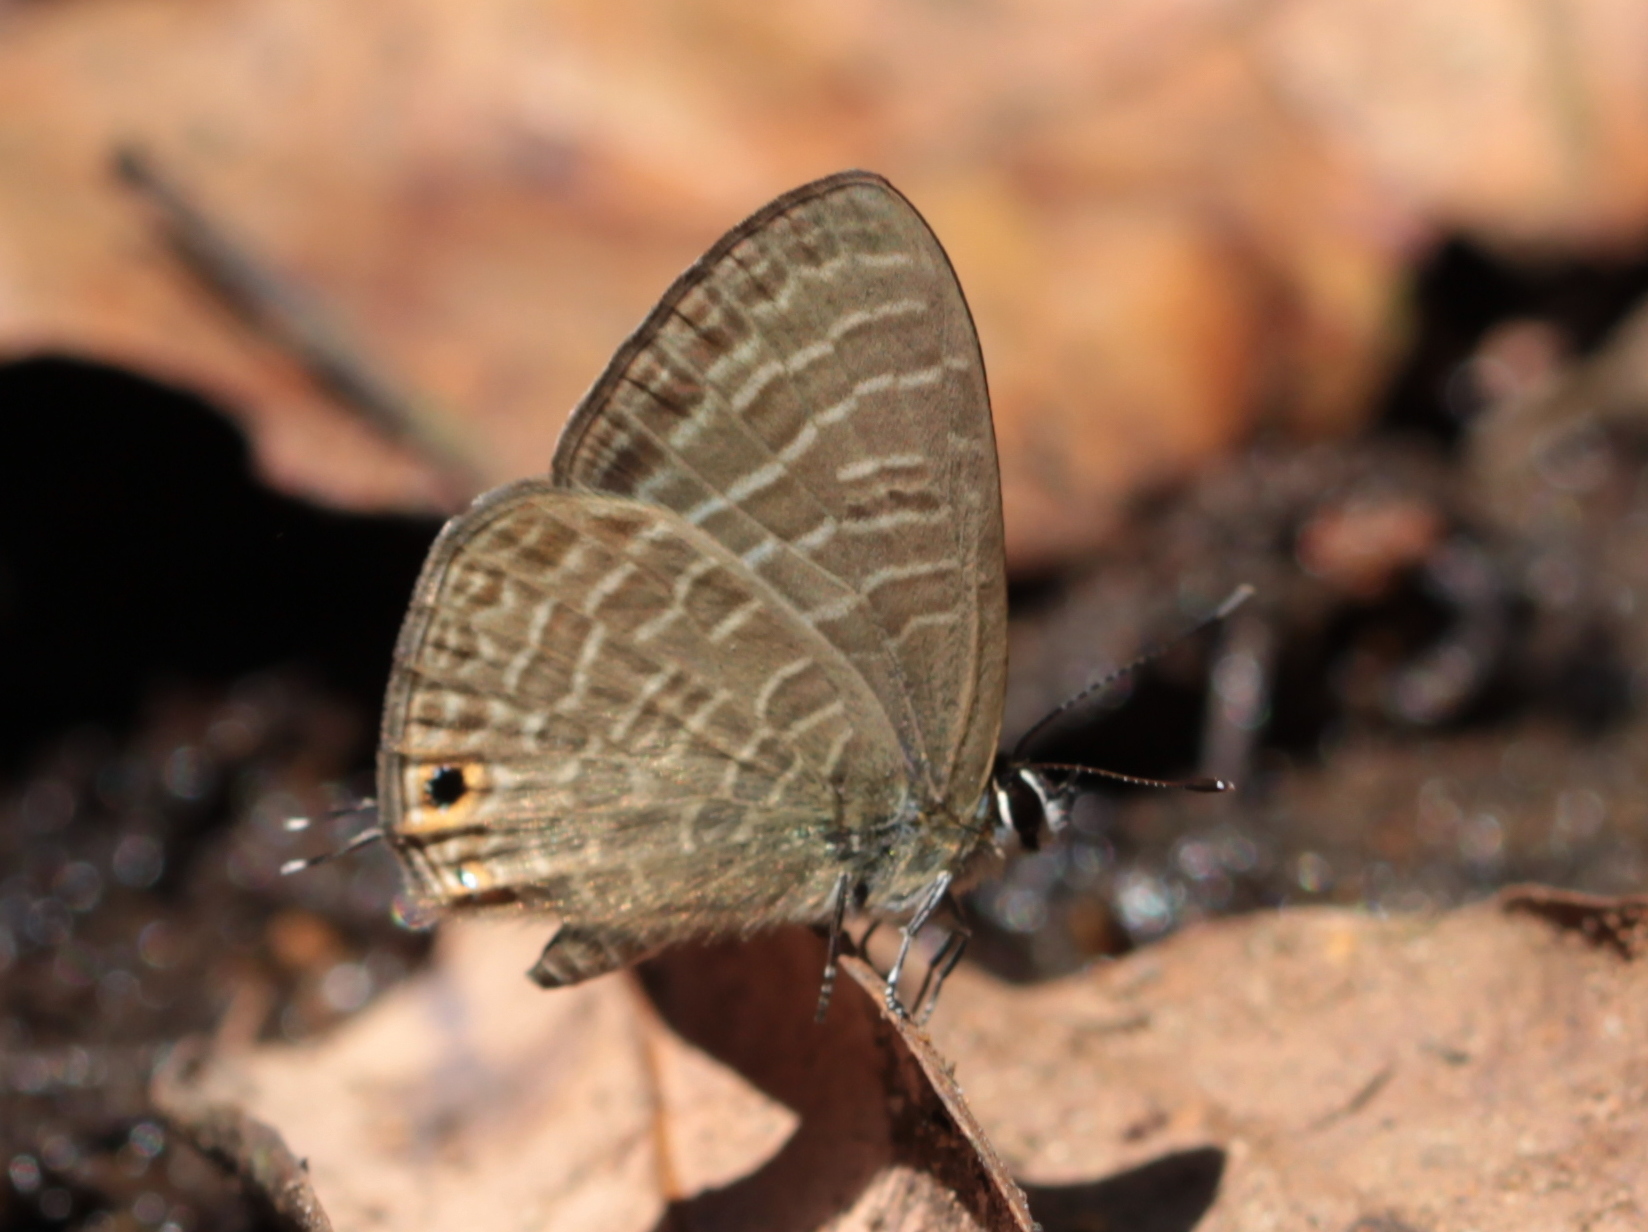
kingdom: Animalia
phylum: Arthropoda
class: Insecta
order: Lepidoptera
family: Lycaenidae
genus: Nacaduba
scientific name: Nacaduba kurava
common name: Transparent 6-line blue
